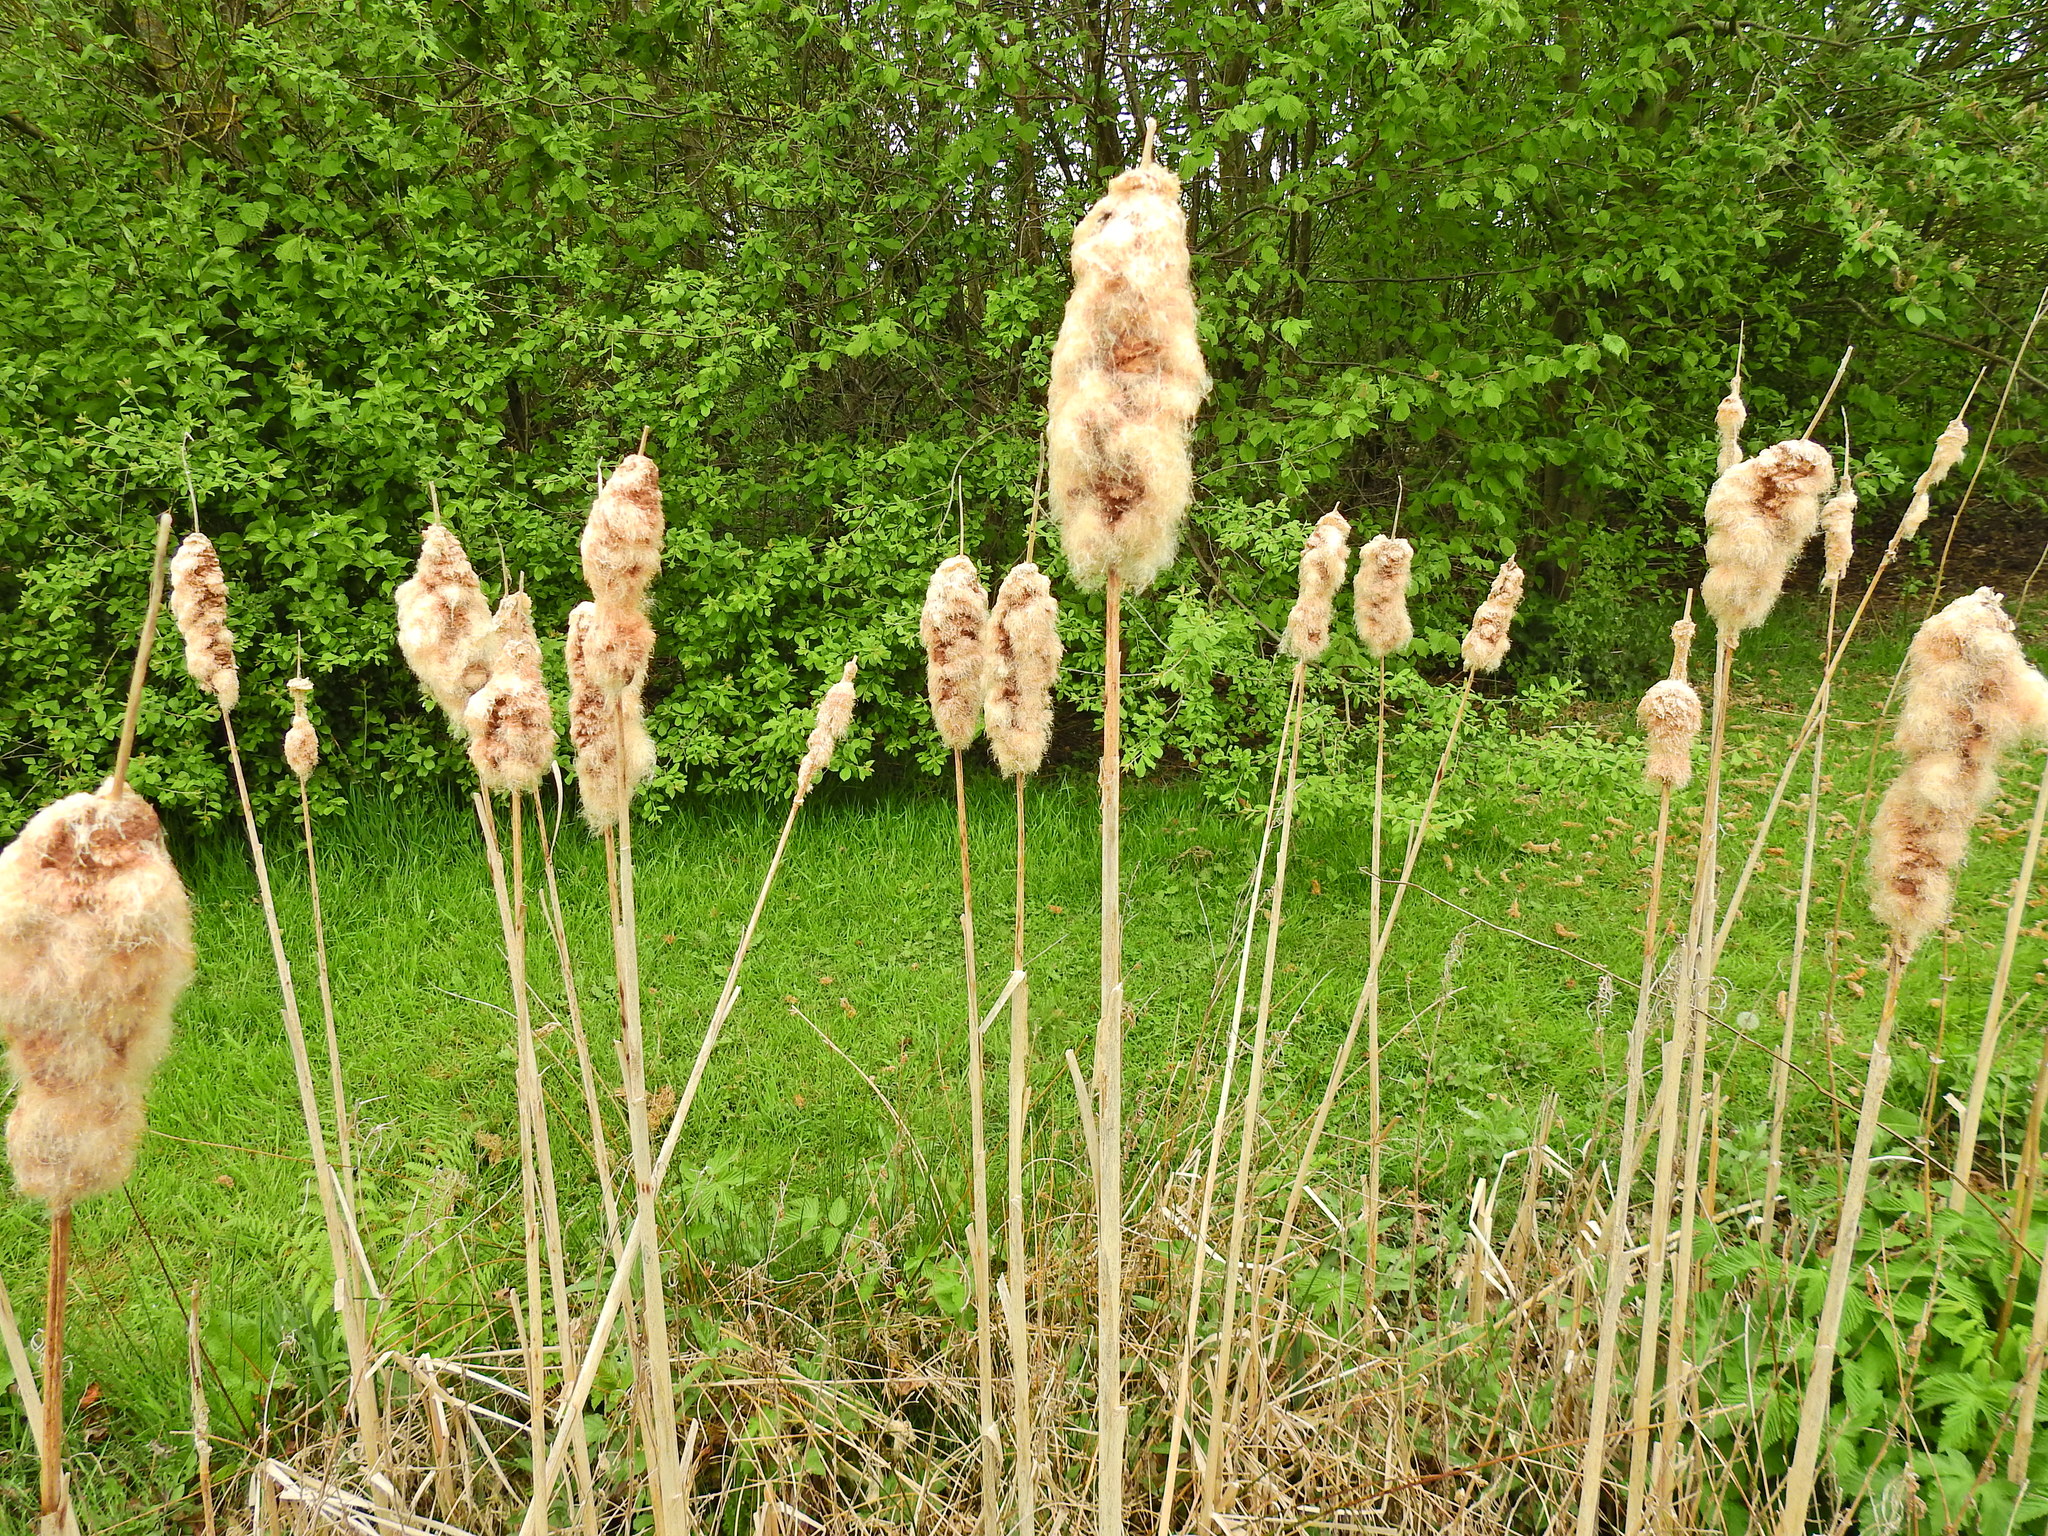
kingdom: Plantae
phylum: Tracheophyta
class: Liliopsida
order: Poales
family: Typhaceae
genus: Typha
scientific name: Typha latifolia
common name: Broadleaf cattail
